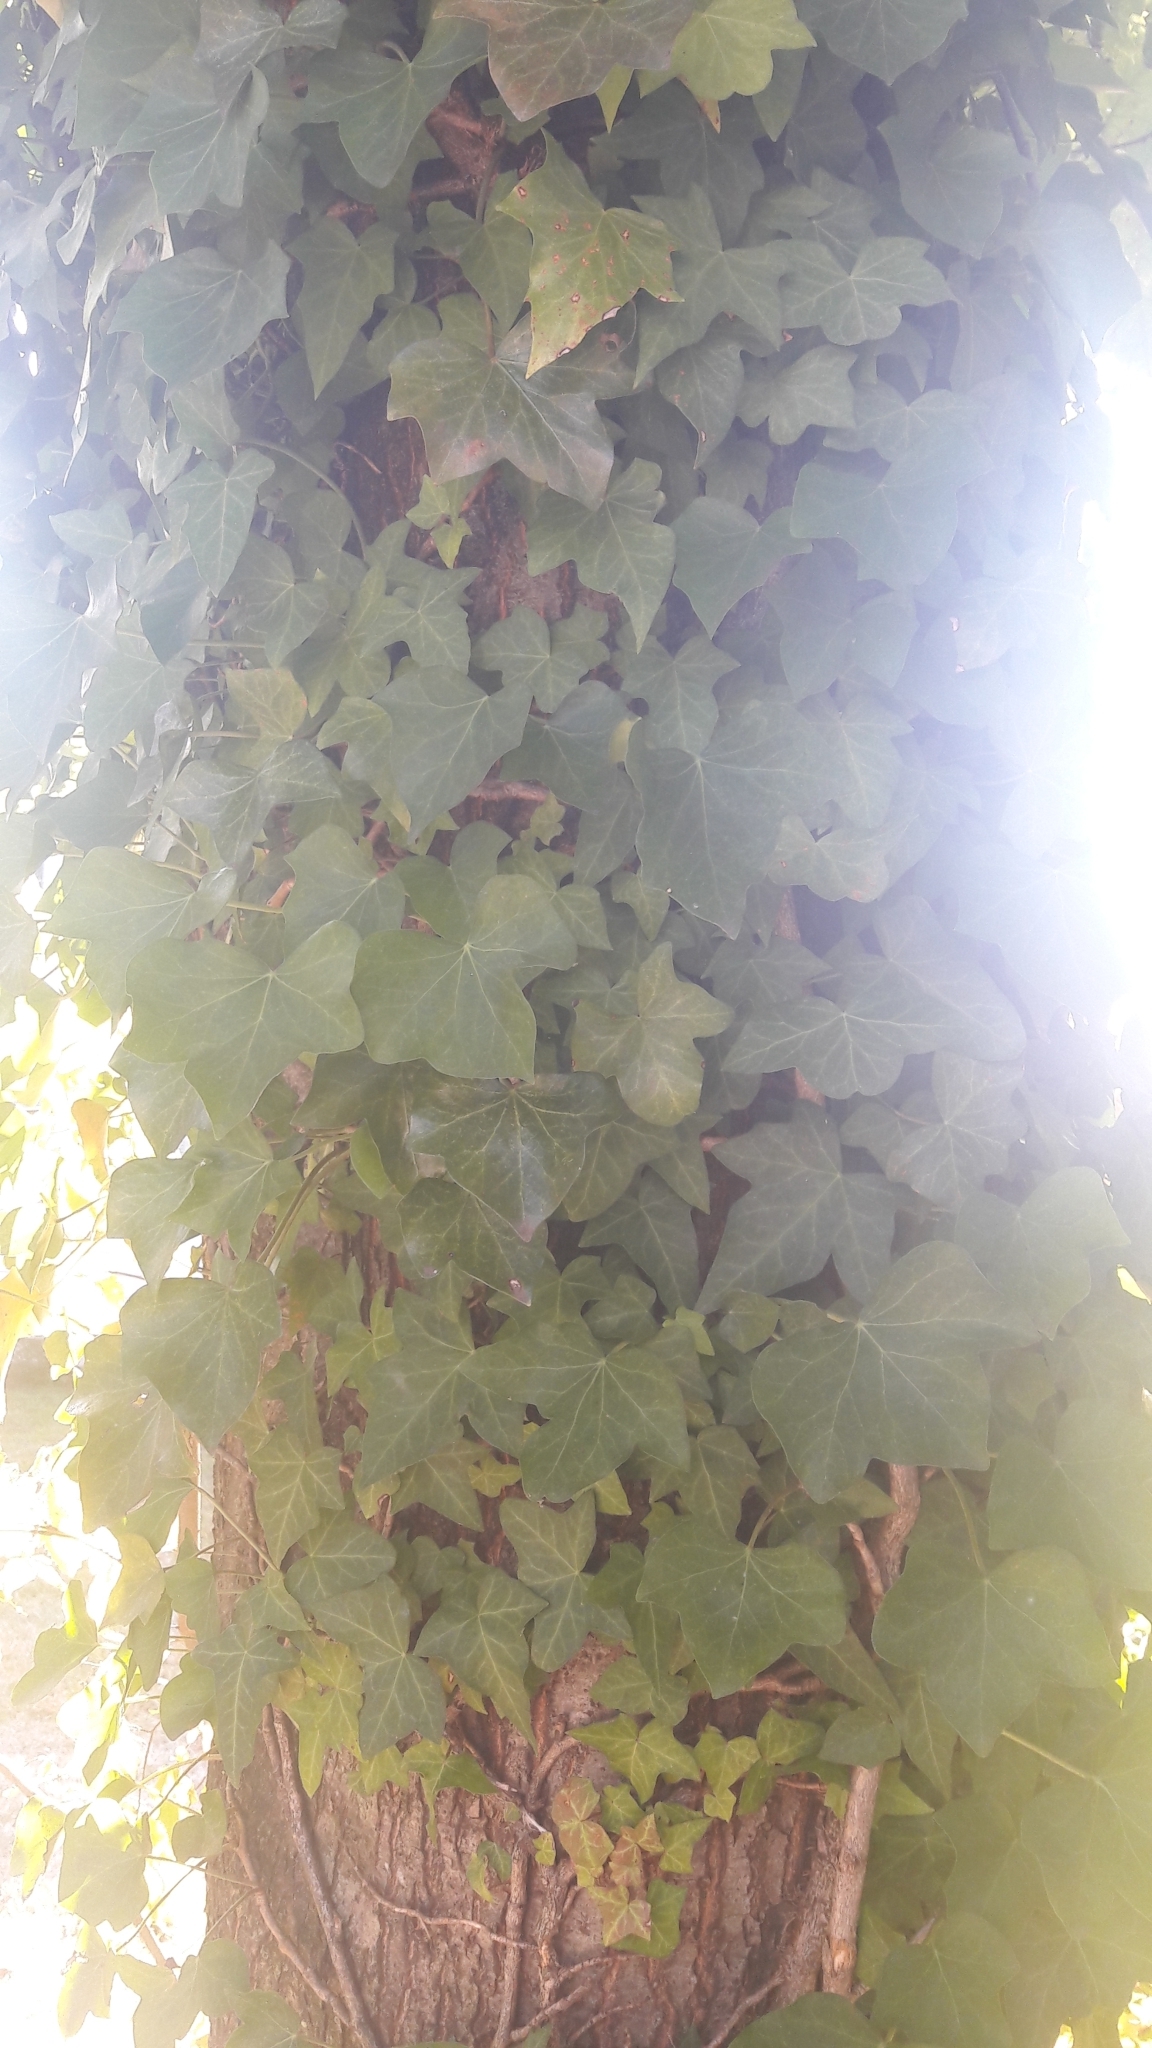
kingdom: Plantae
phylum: Tracheophyta
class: Magnoliopsida
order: Apiales
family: Araliaceae
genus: Hedera
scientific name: Hedera helix
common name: Ivy
